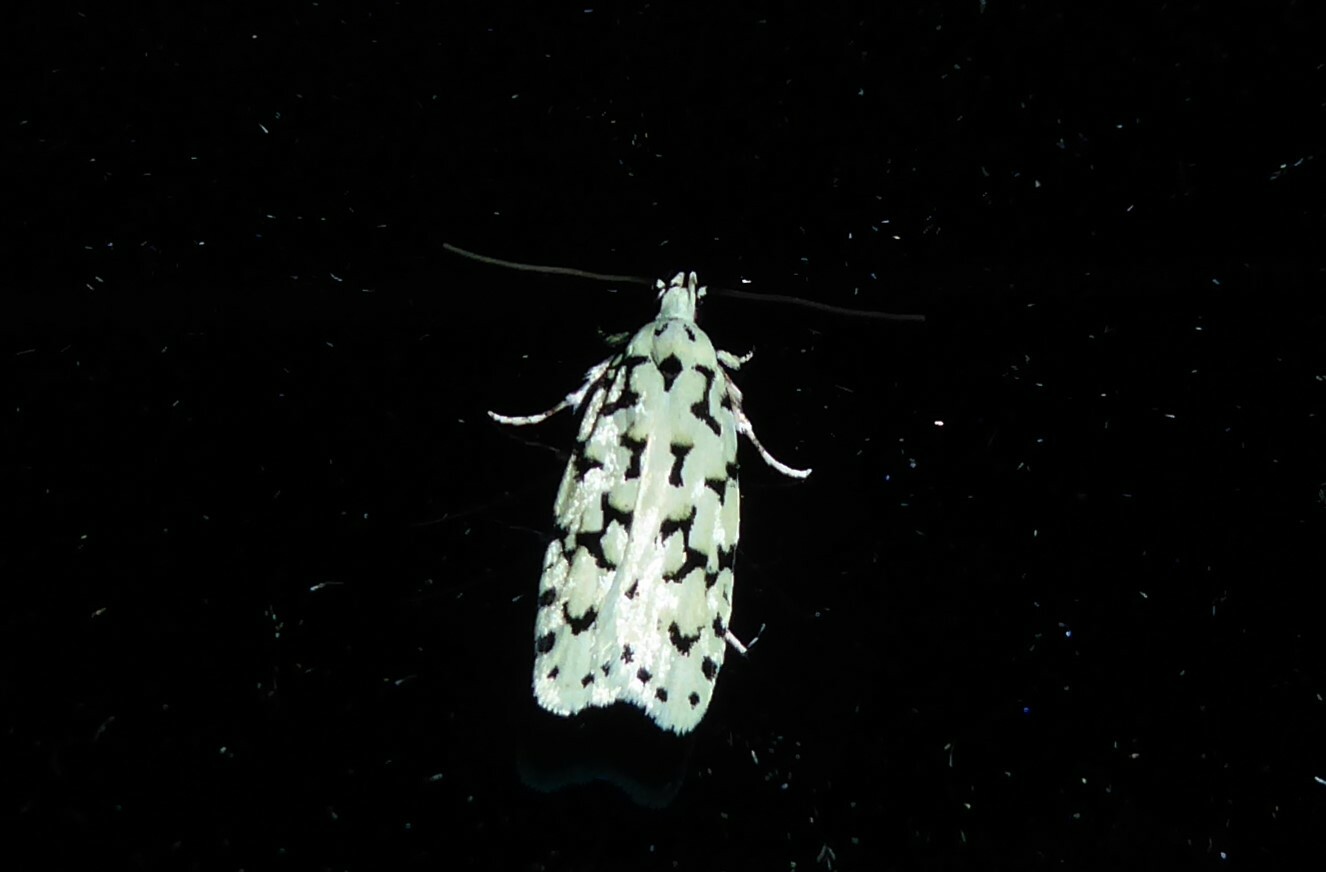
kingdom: Animalia
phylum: Arthropoda
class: Insecta
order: Lepidoptera
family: Oecophoridae
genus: Izatha
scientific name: Izatha huttoni
